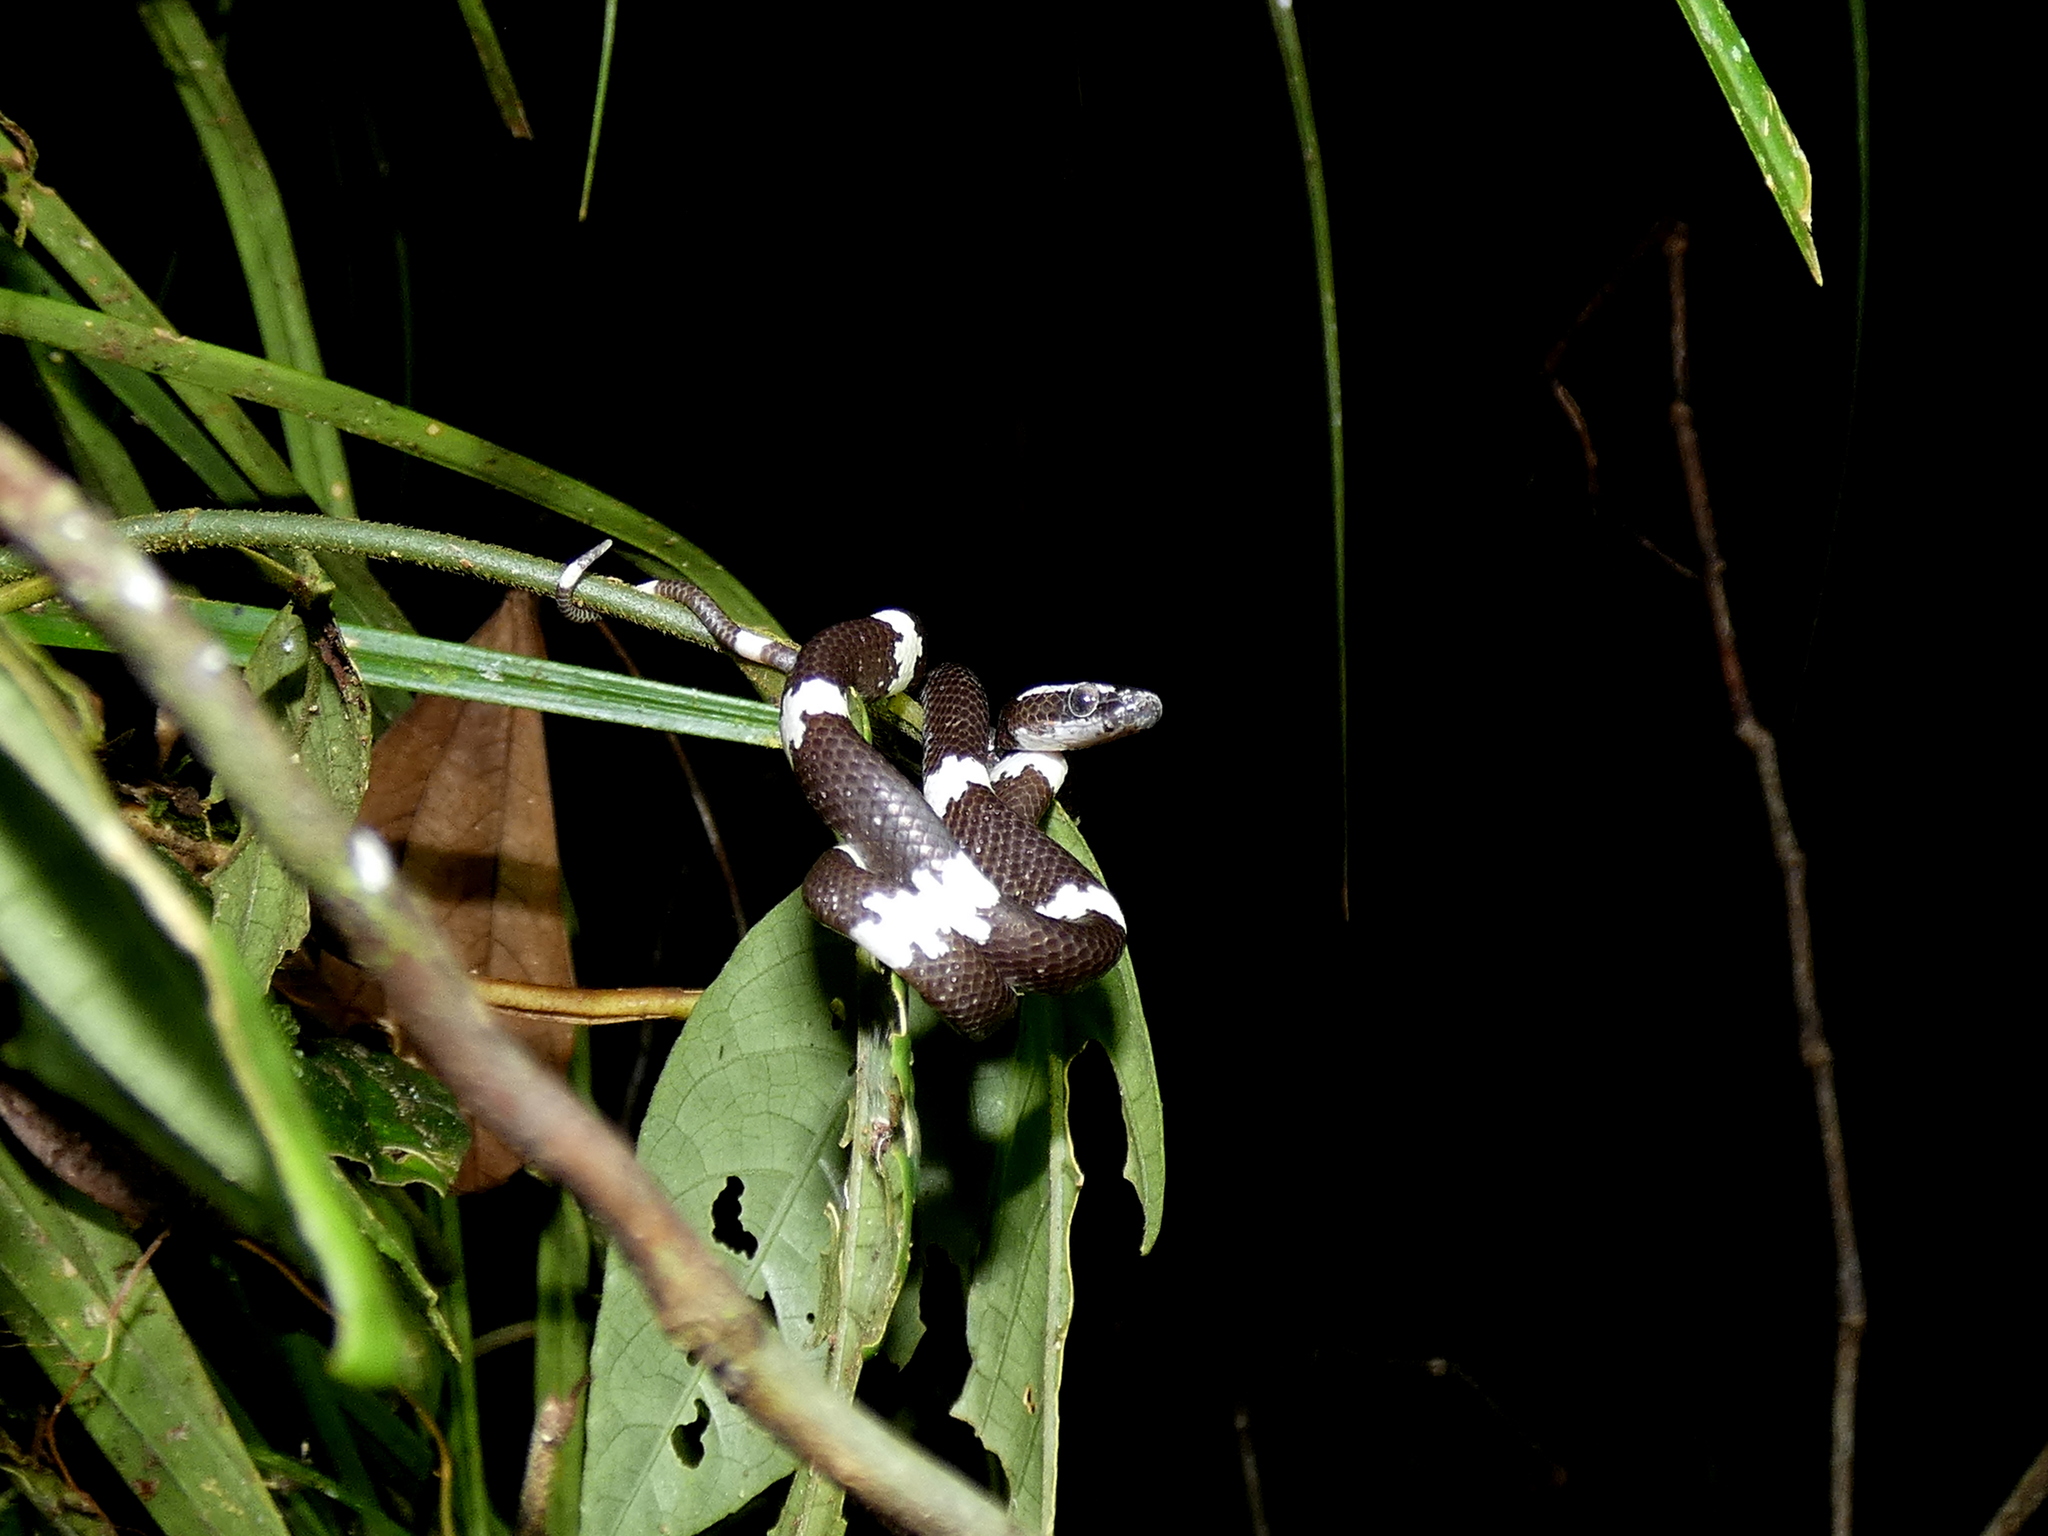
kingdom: Animalia
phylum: Chordata
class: Squamata
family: Colubridae
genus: Lycodon
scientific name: Lycodon effraenis
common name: Brown wolf snake
